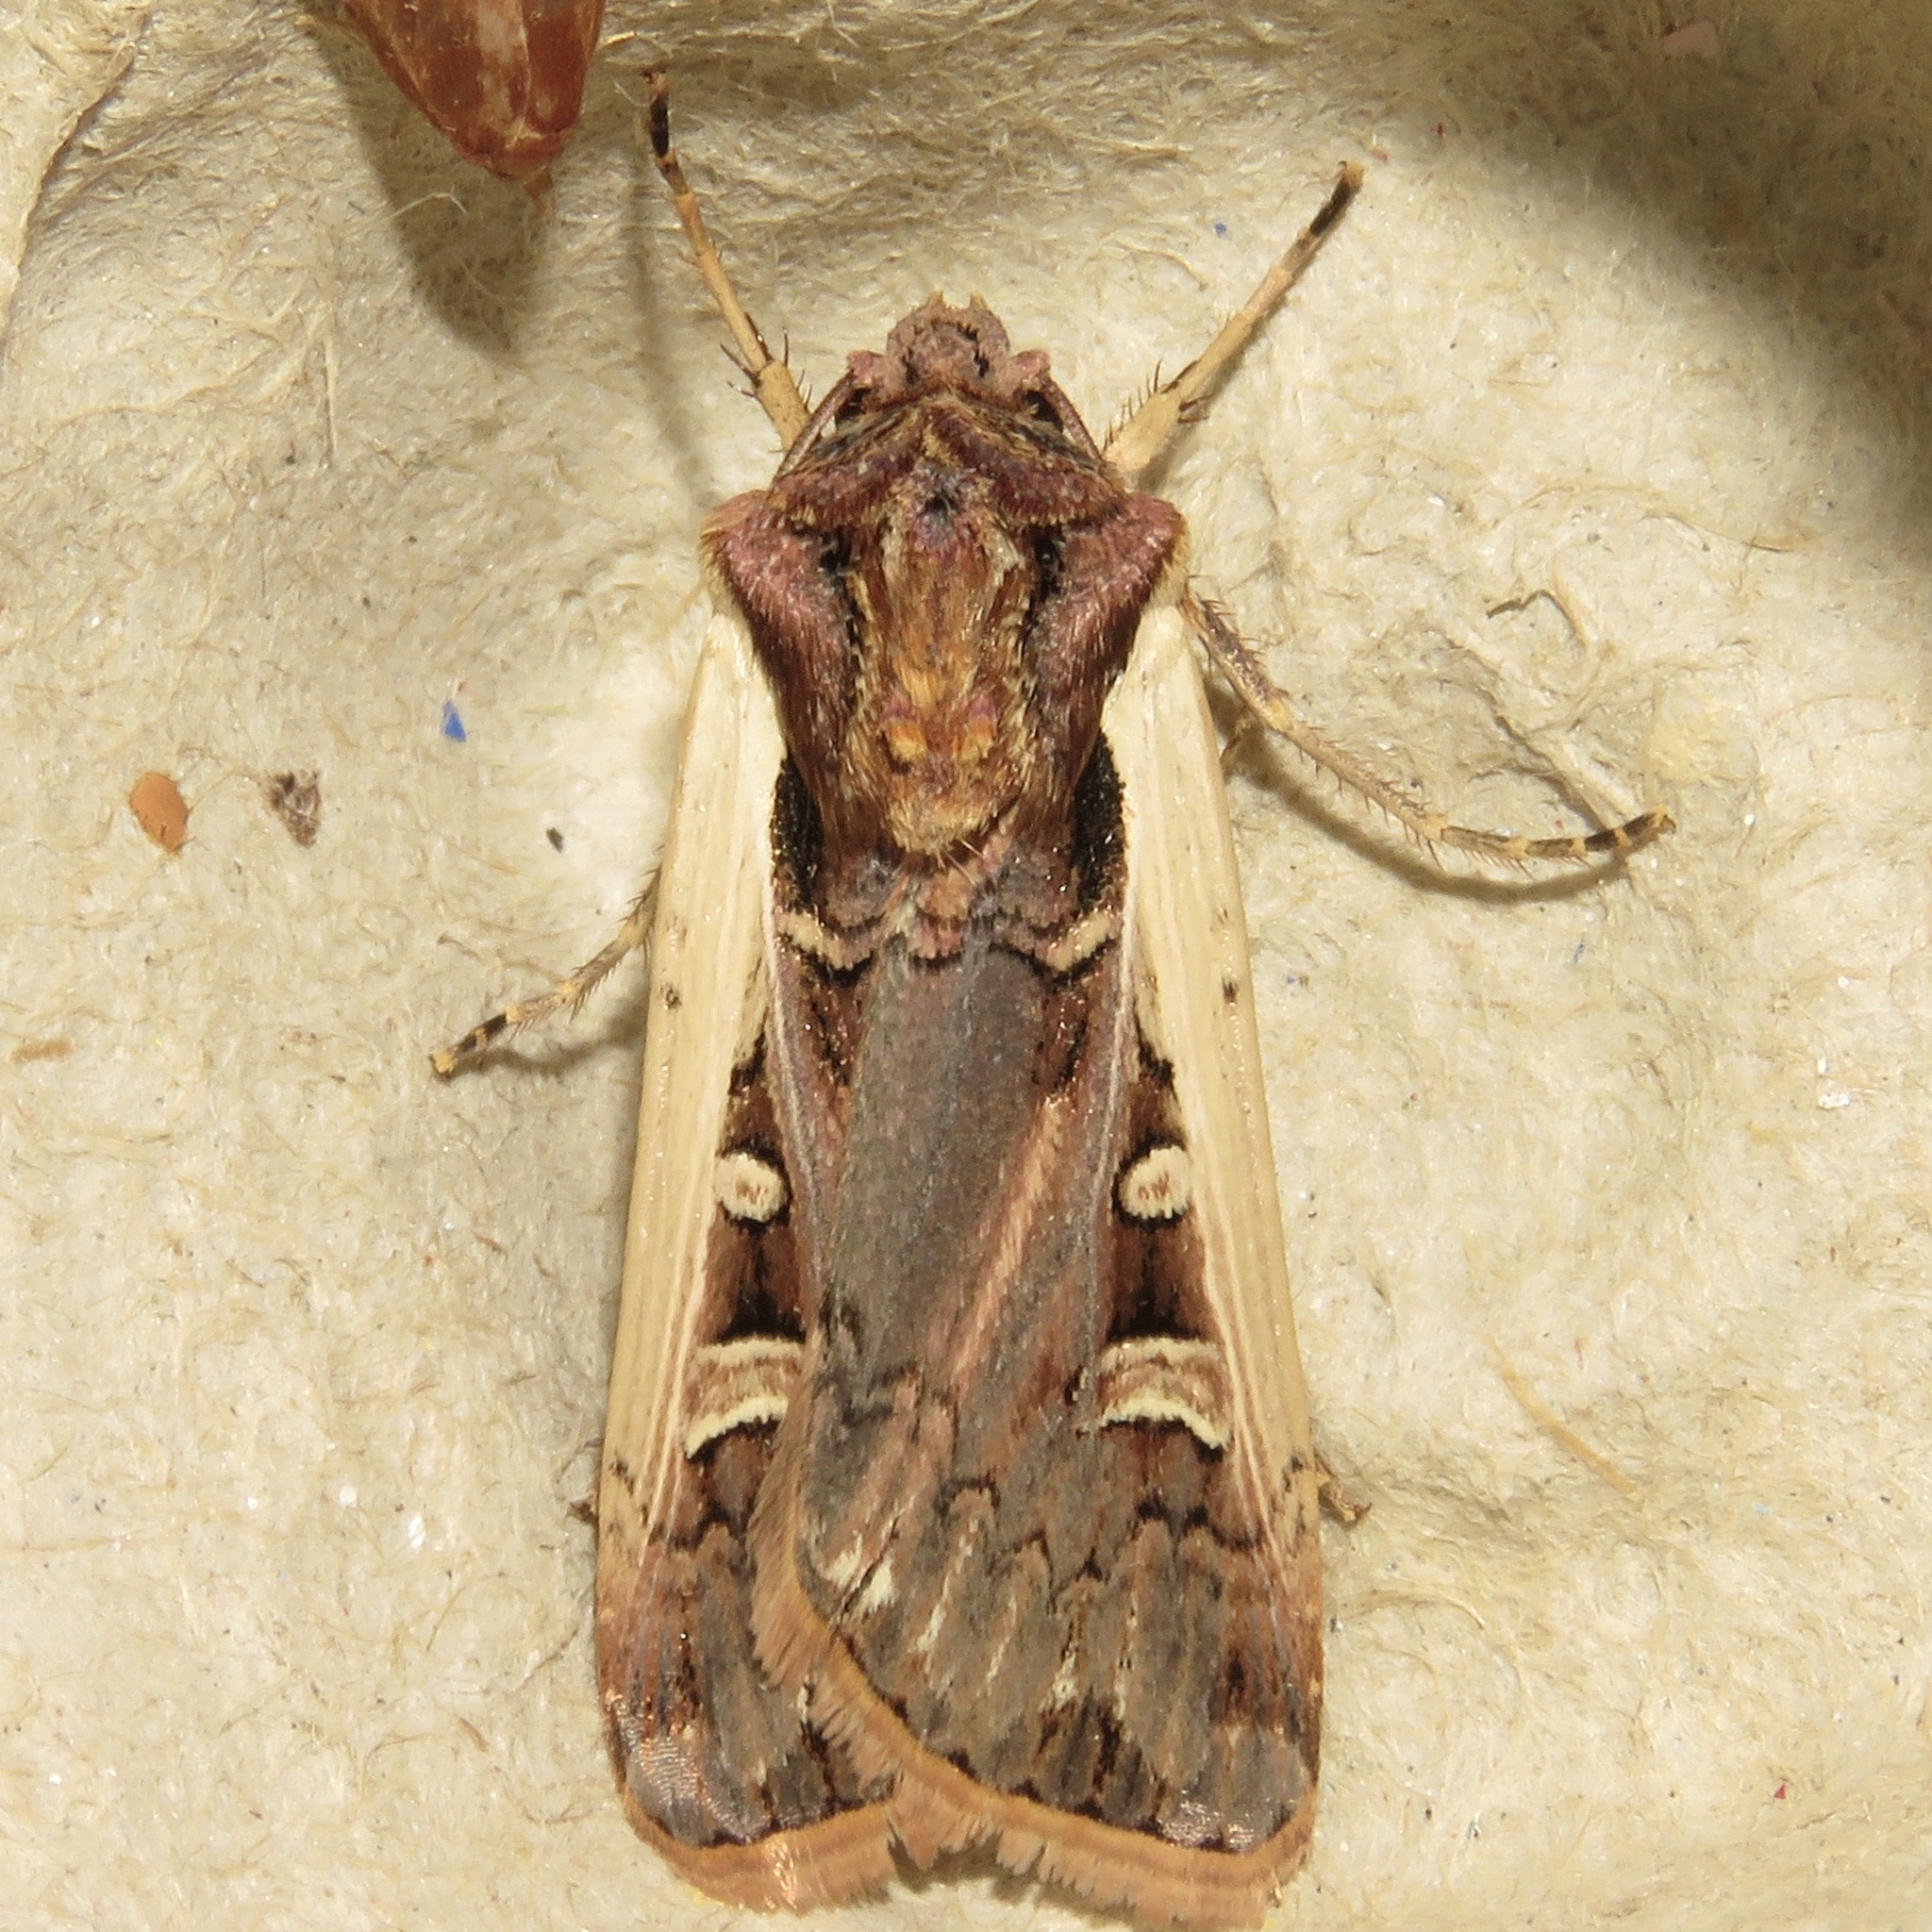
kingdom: Animalia
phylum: Arthropoda
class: Insecta
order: Lepidoptera
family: Noctuidae
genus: Striacosta
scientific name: Striacosta albicosta
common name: Western bean cutworm moth
